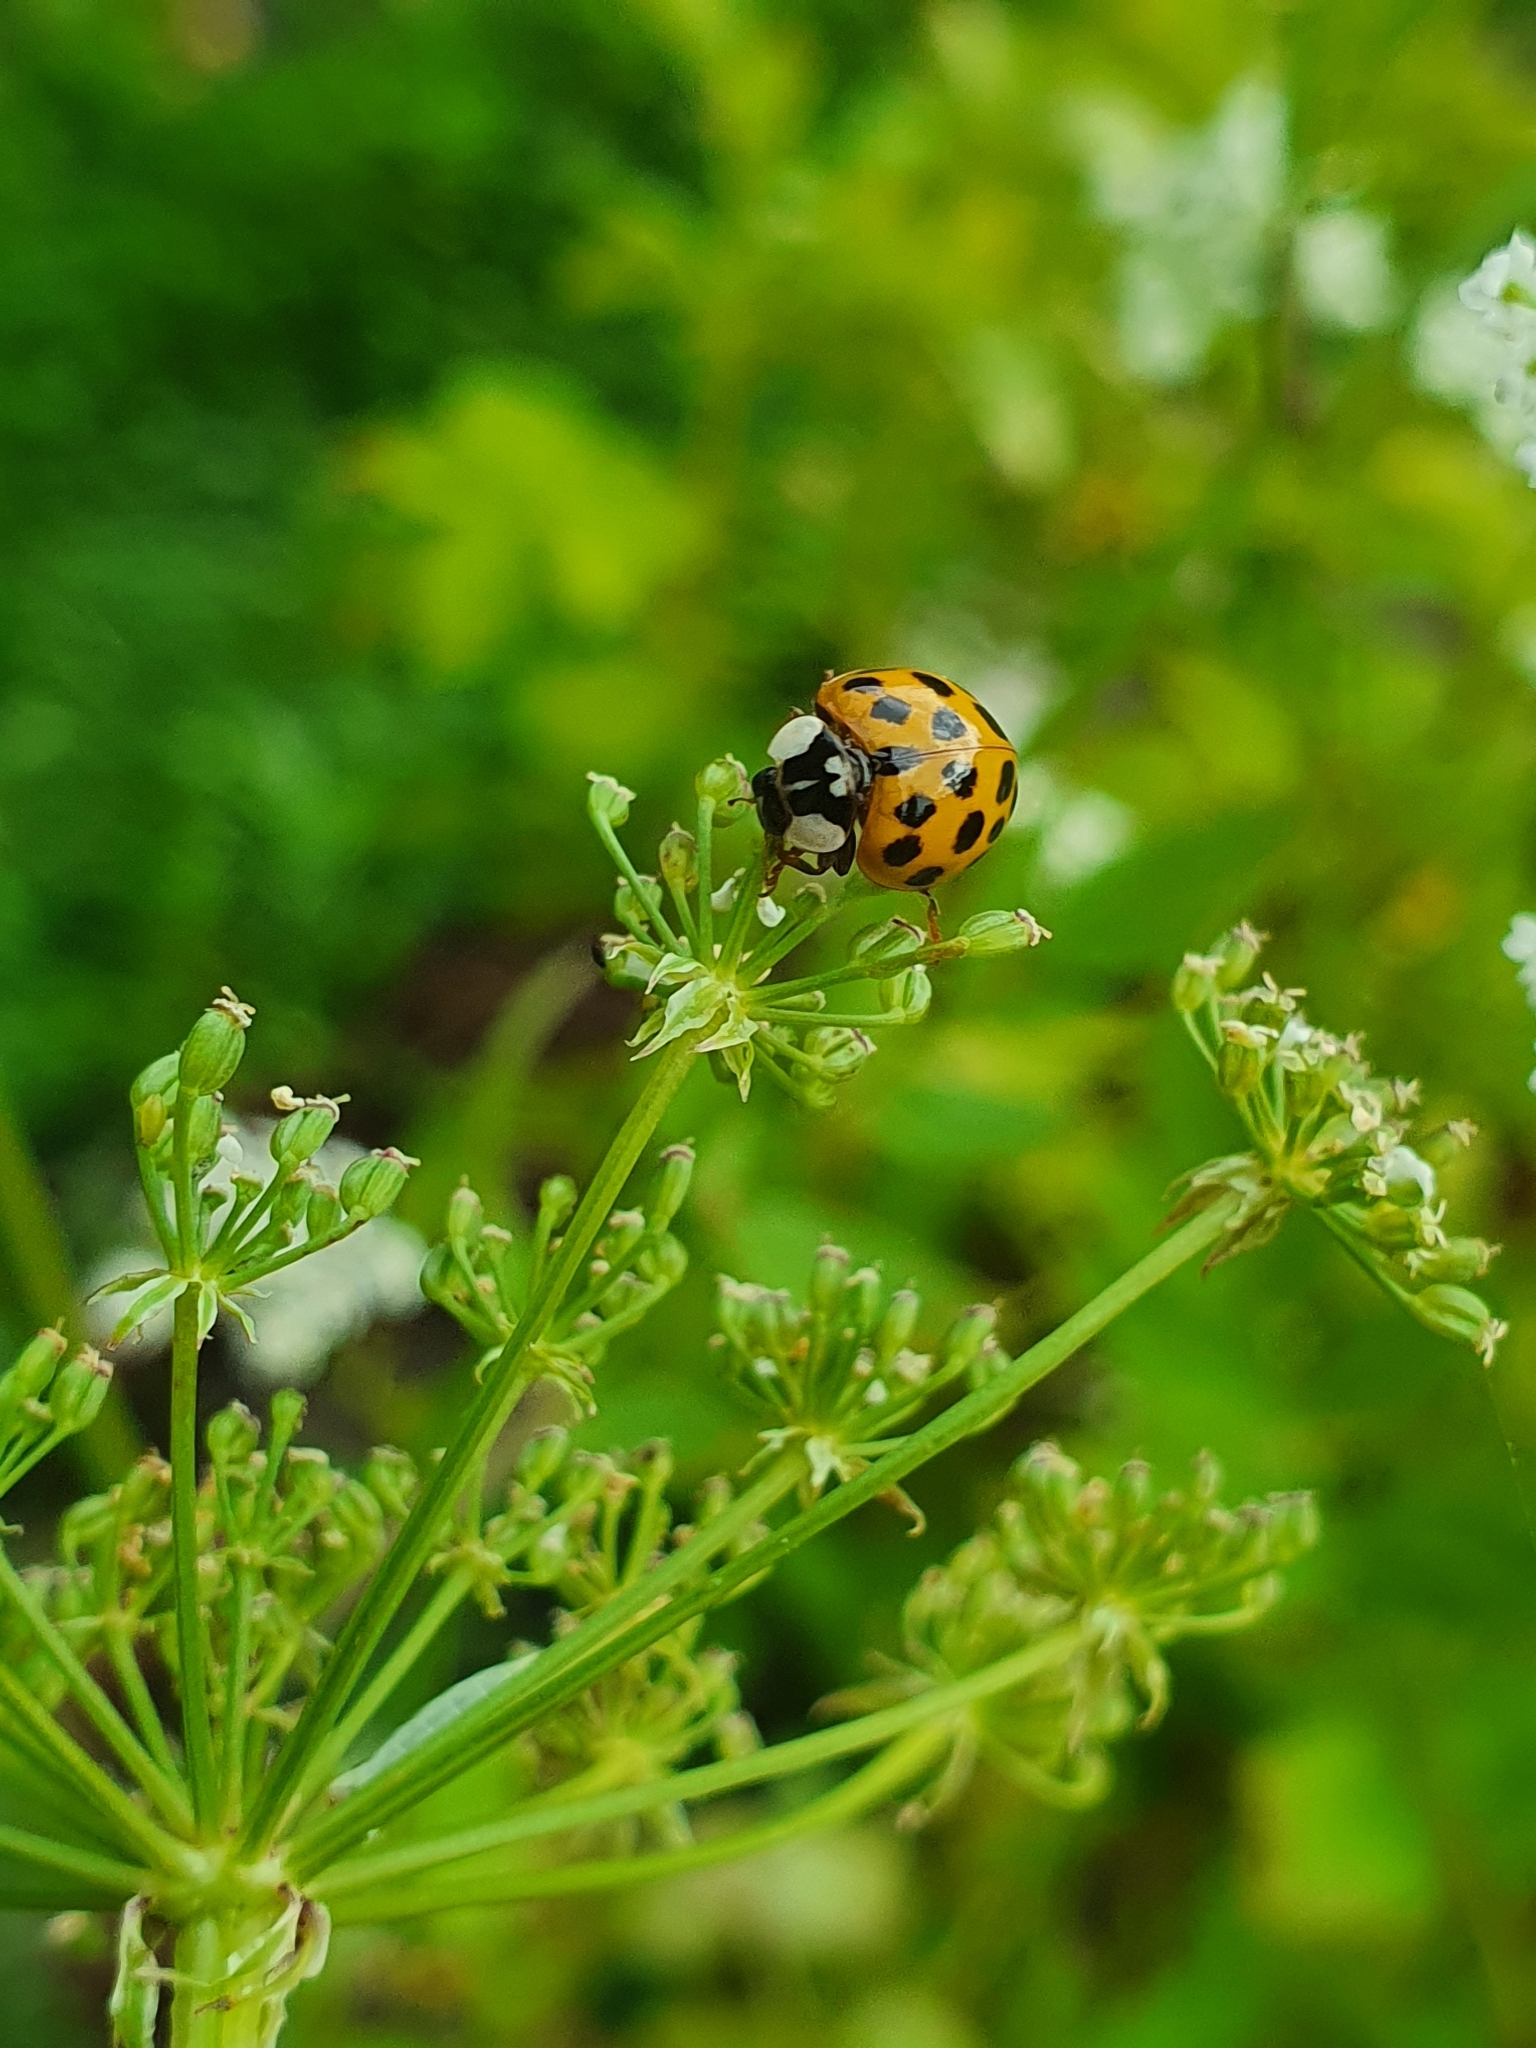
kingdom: Animalia
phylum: Arthropoda
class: Insecta
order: Coleoptera
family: Coccinellidae
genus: Harmonia
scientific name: Harmonia axyridis
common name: Harlequin ladybird
